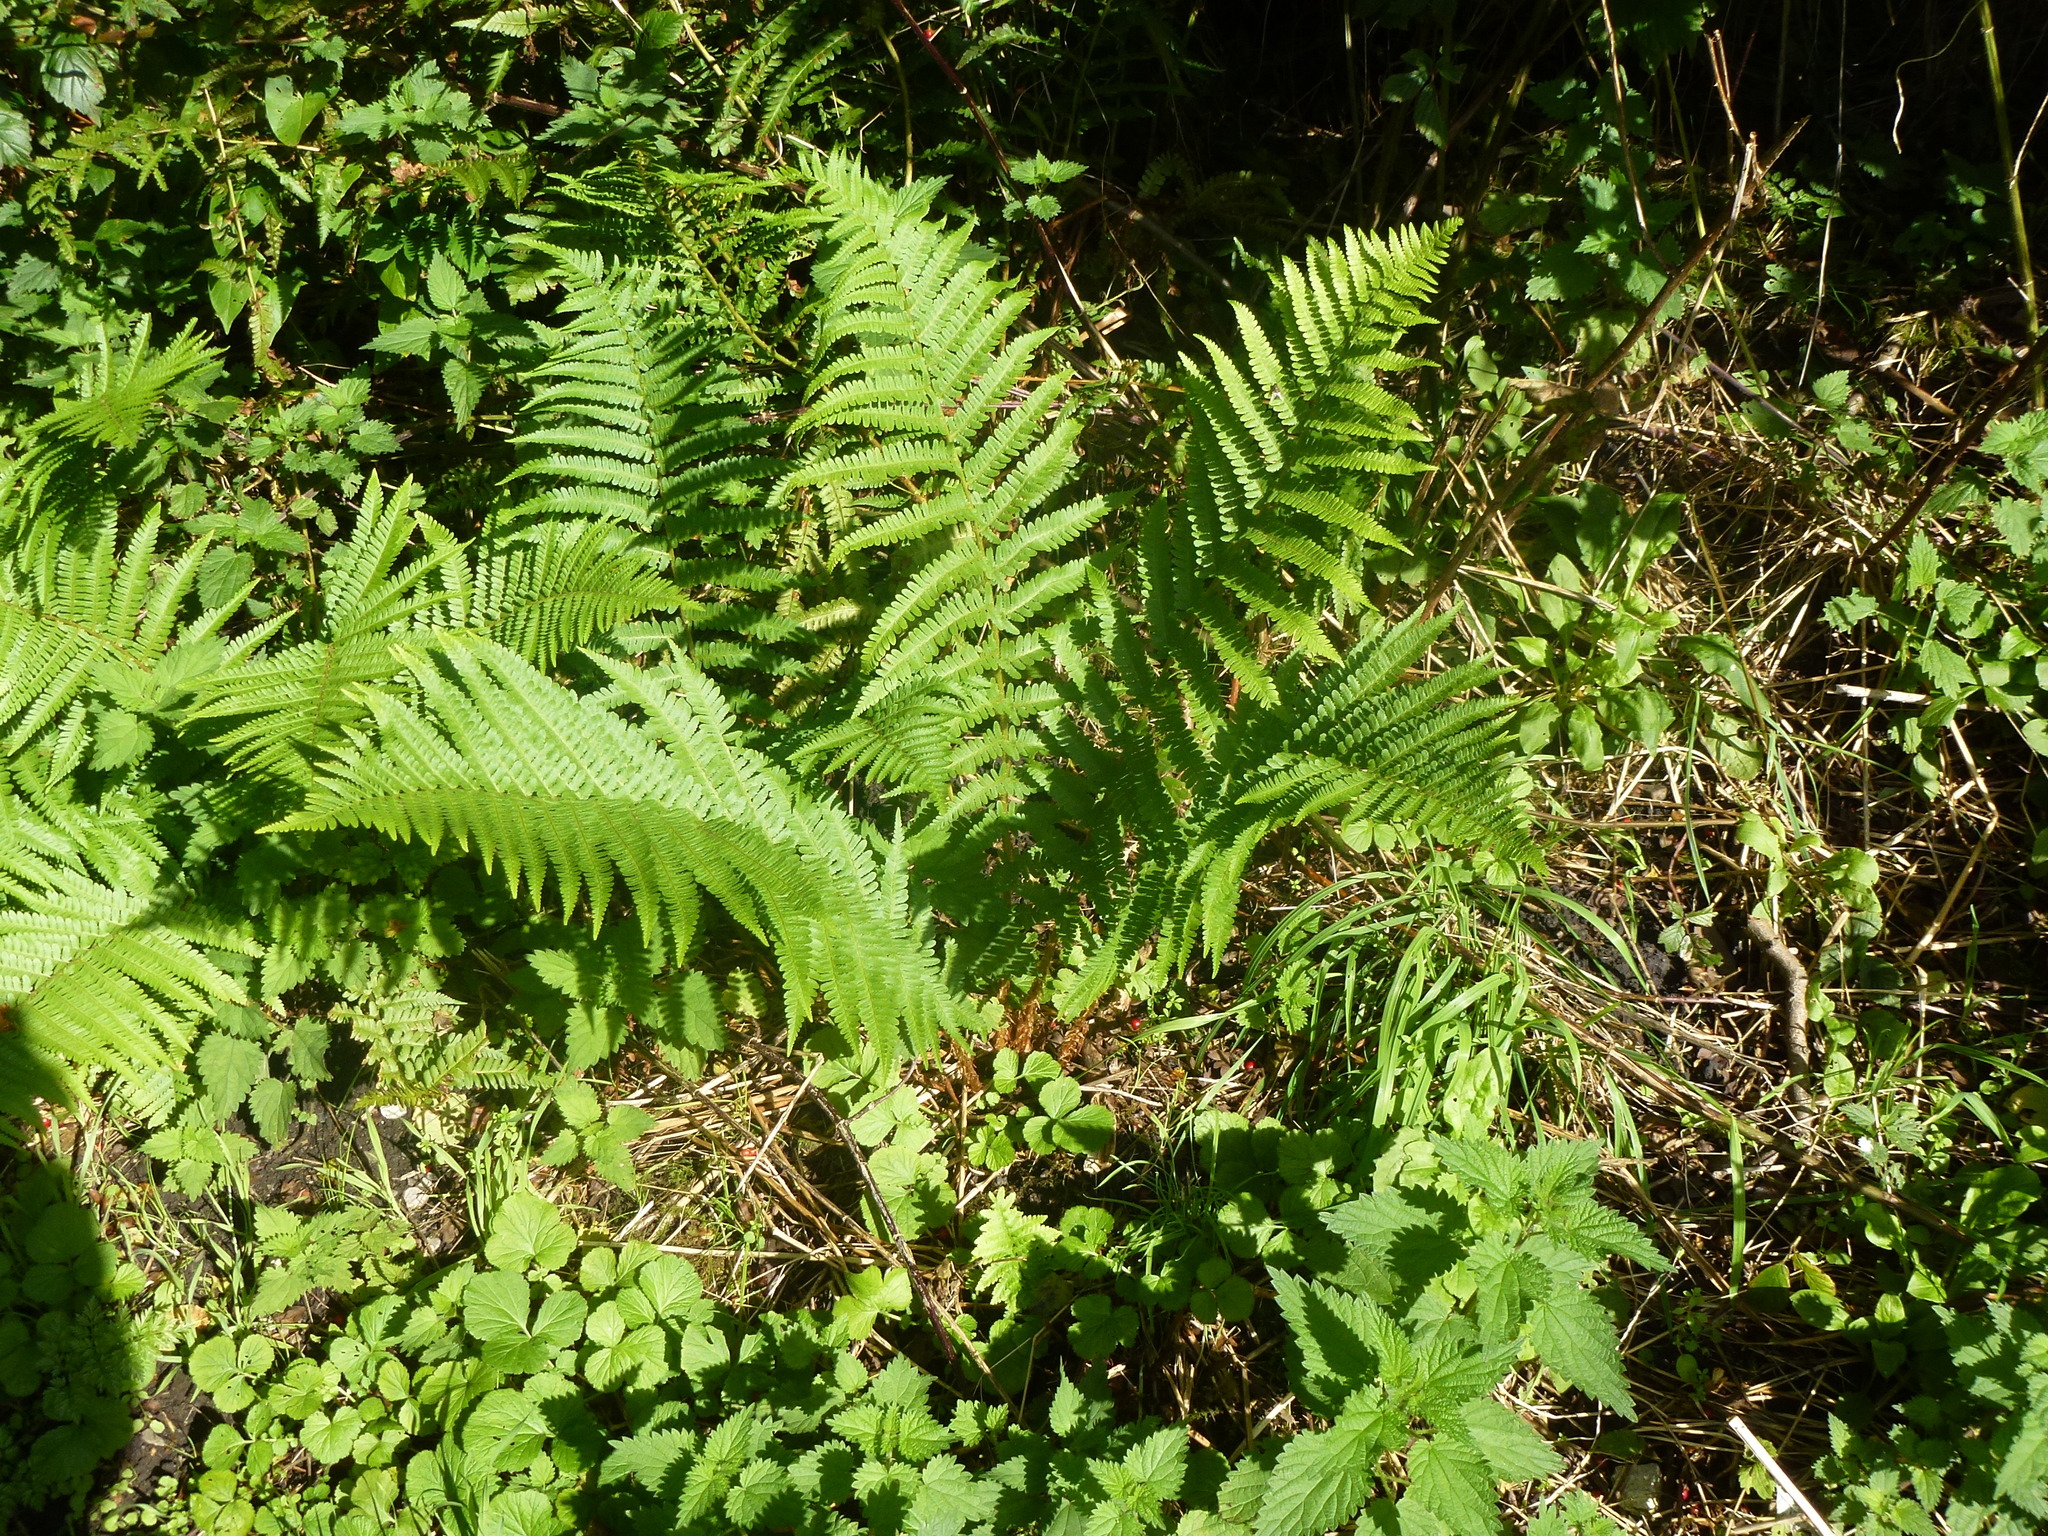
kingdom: Plantae
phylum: Tracheophyta
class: Polypodiopsida
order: Polypodiales
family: Dryopteridaceae
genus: Dryopteris
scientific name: Dryopteris filix-mas
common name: Male fern
